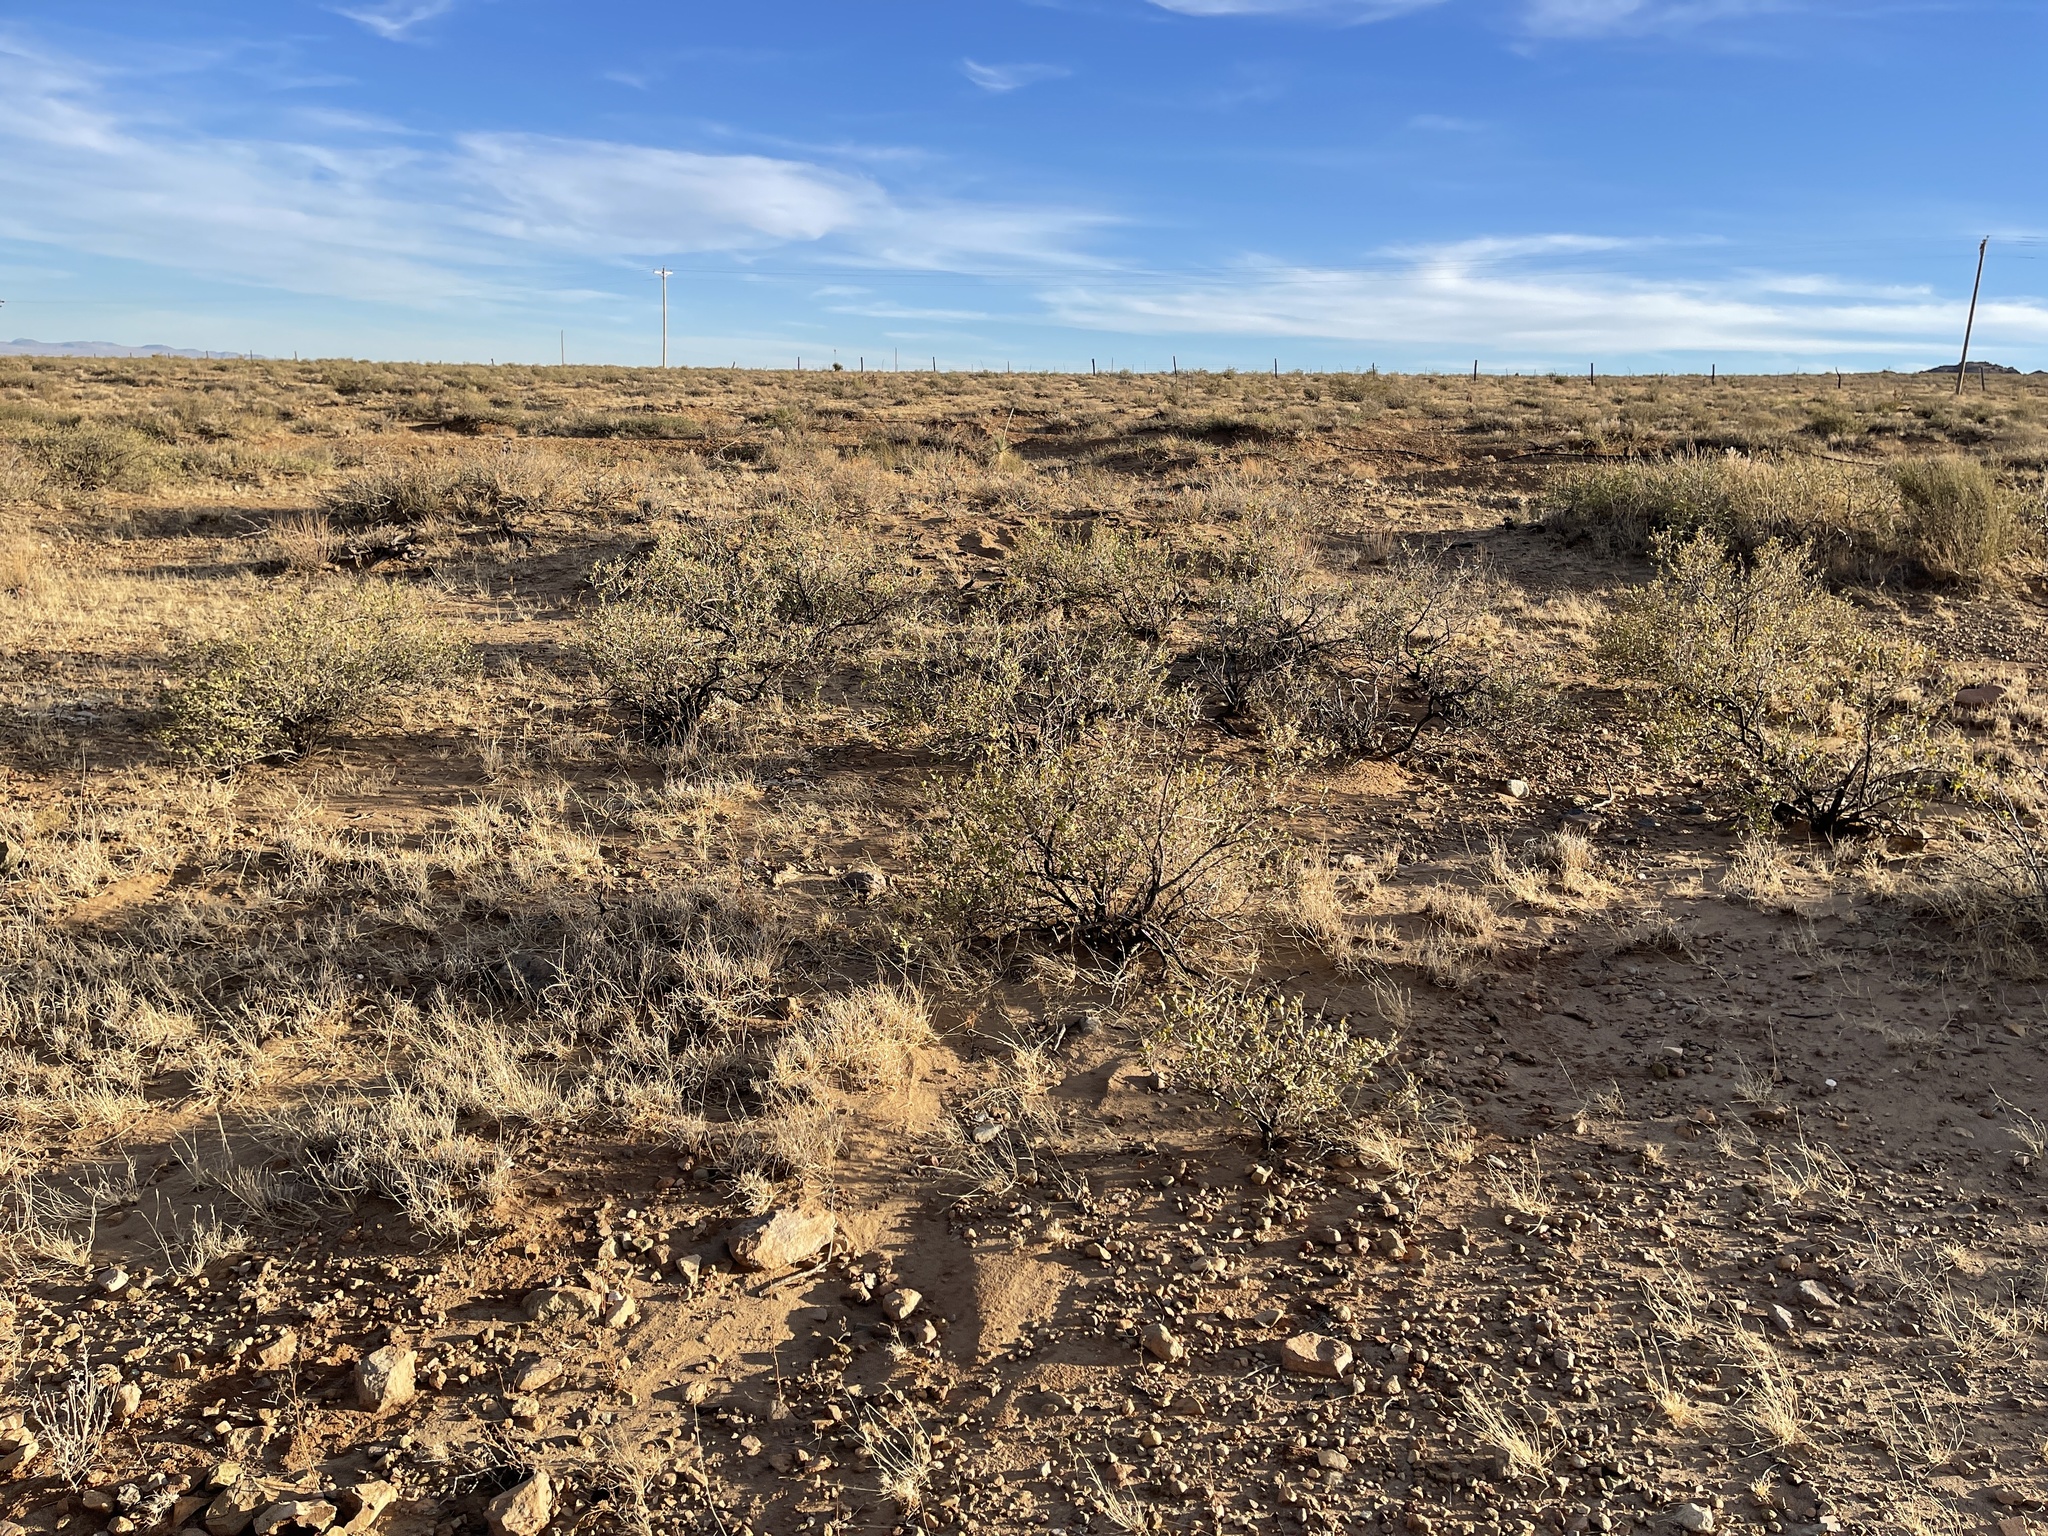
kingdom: Plantae
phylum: Tracheophyta
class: Magnoliopsida
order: Asterales
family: Asteraceae
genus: Flourensia
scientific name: Flourensia cernua
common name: Varnishbush
